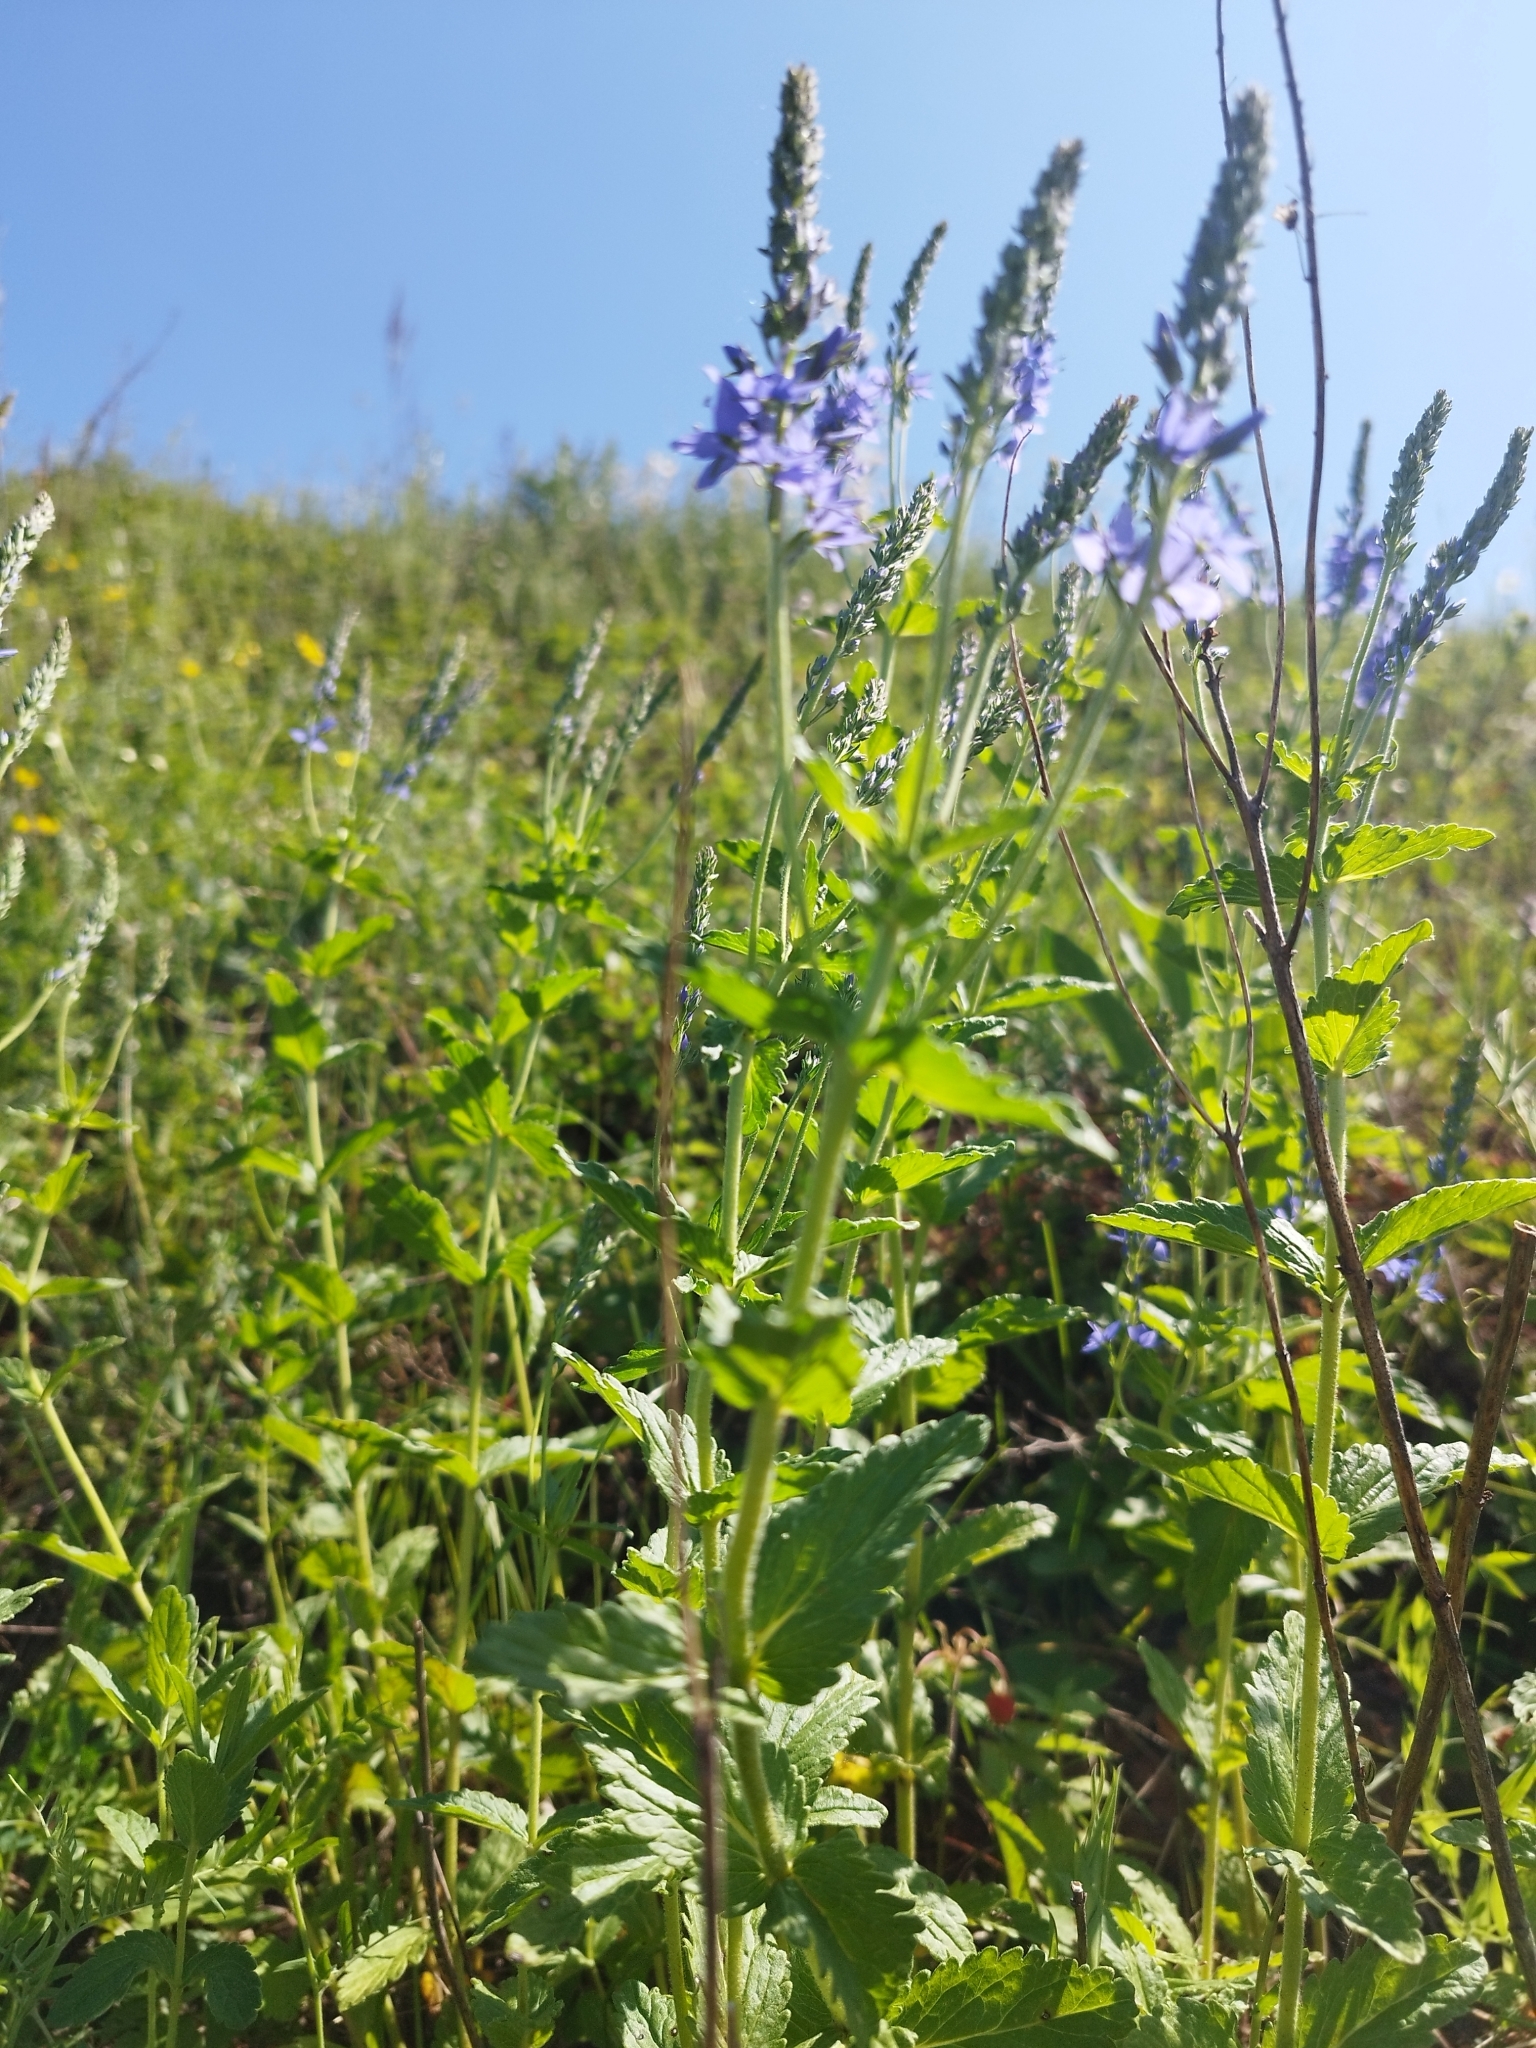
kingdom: Plantae
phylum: Tracheophyta
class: Magnoliopsida
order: Lamiales
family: Plantaginaceae
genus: Veronica
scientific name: Veronica teucrium
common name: Large speedwell
